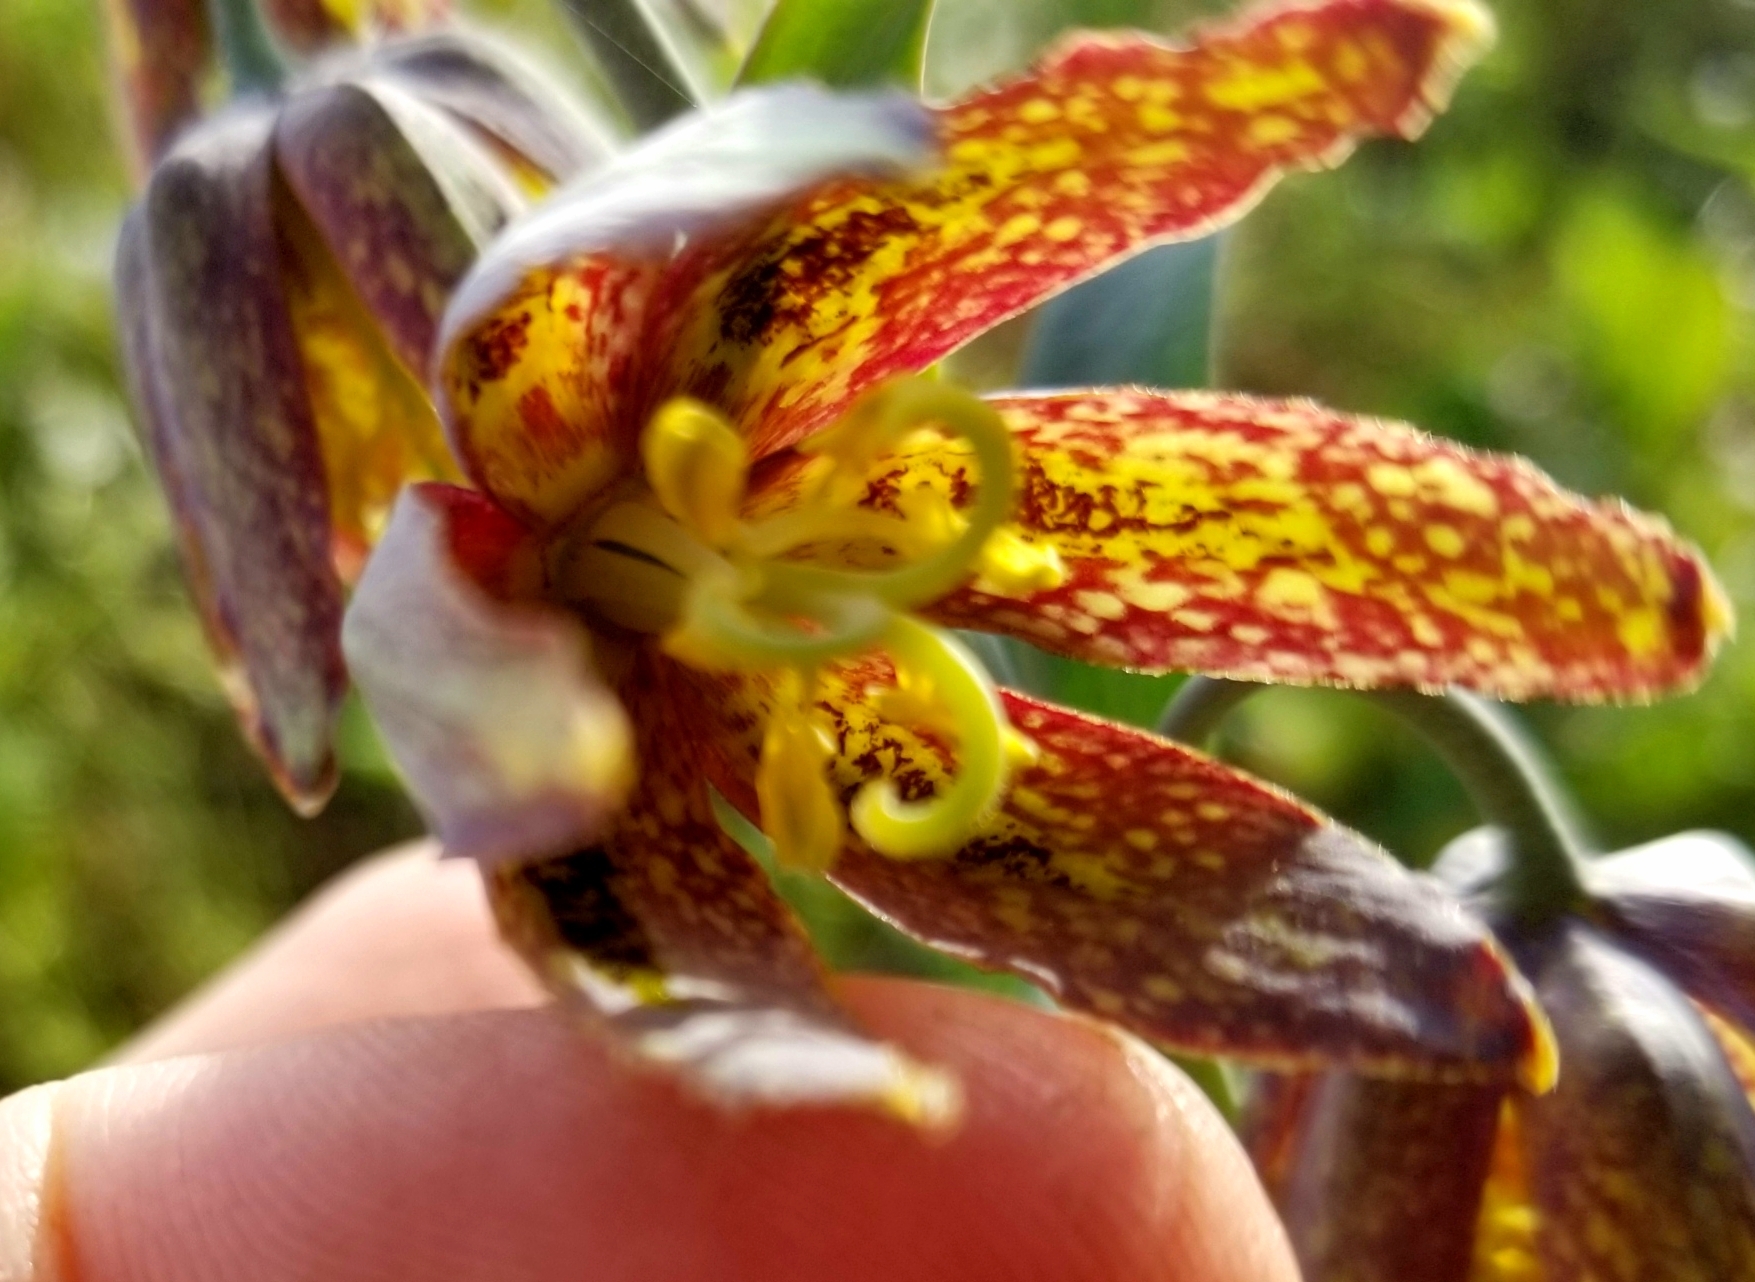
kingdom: Plantae
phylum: Tracheophyta
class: Liliopsida
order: Liliales
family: Liliaceae
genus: Fritillaria
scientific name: Fritillaria affinis
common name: Ojai fritillary
